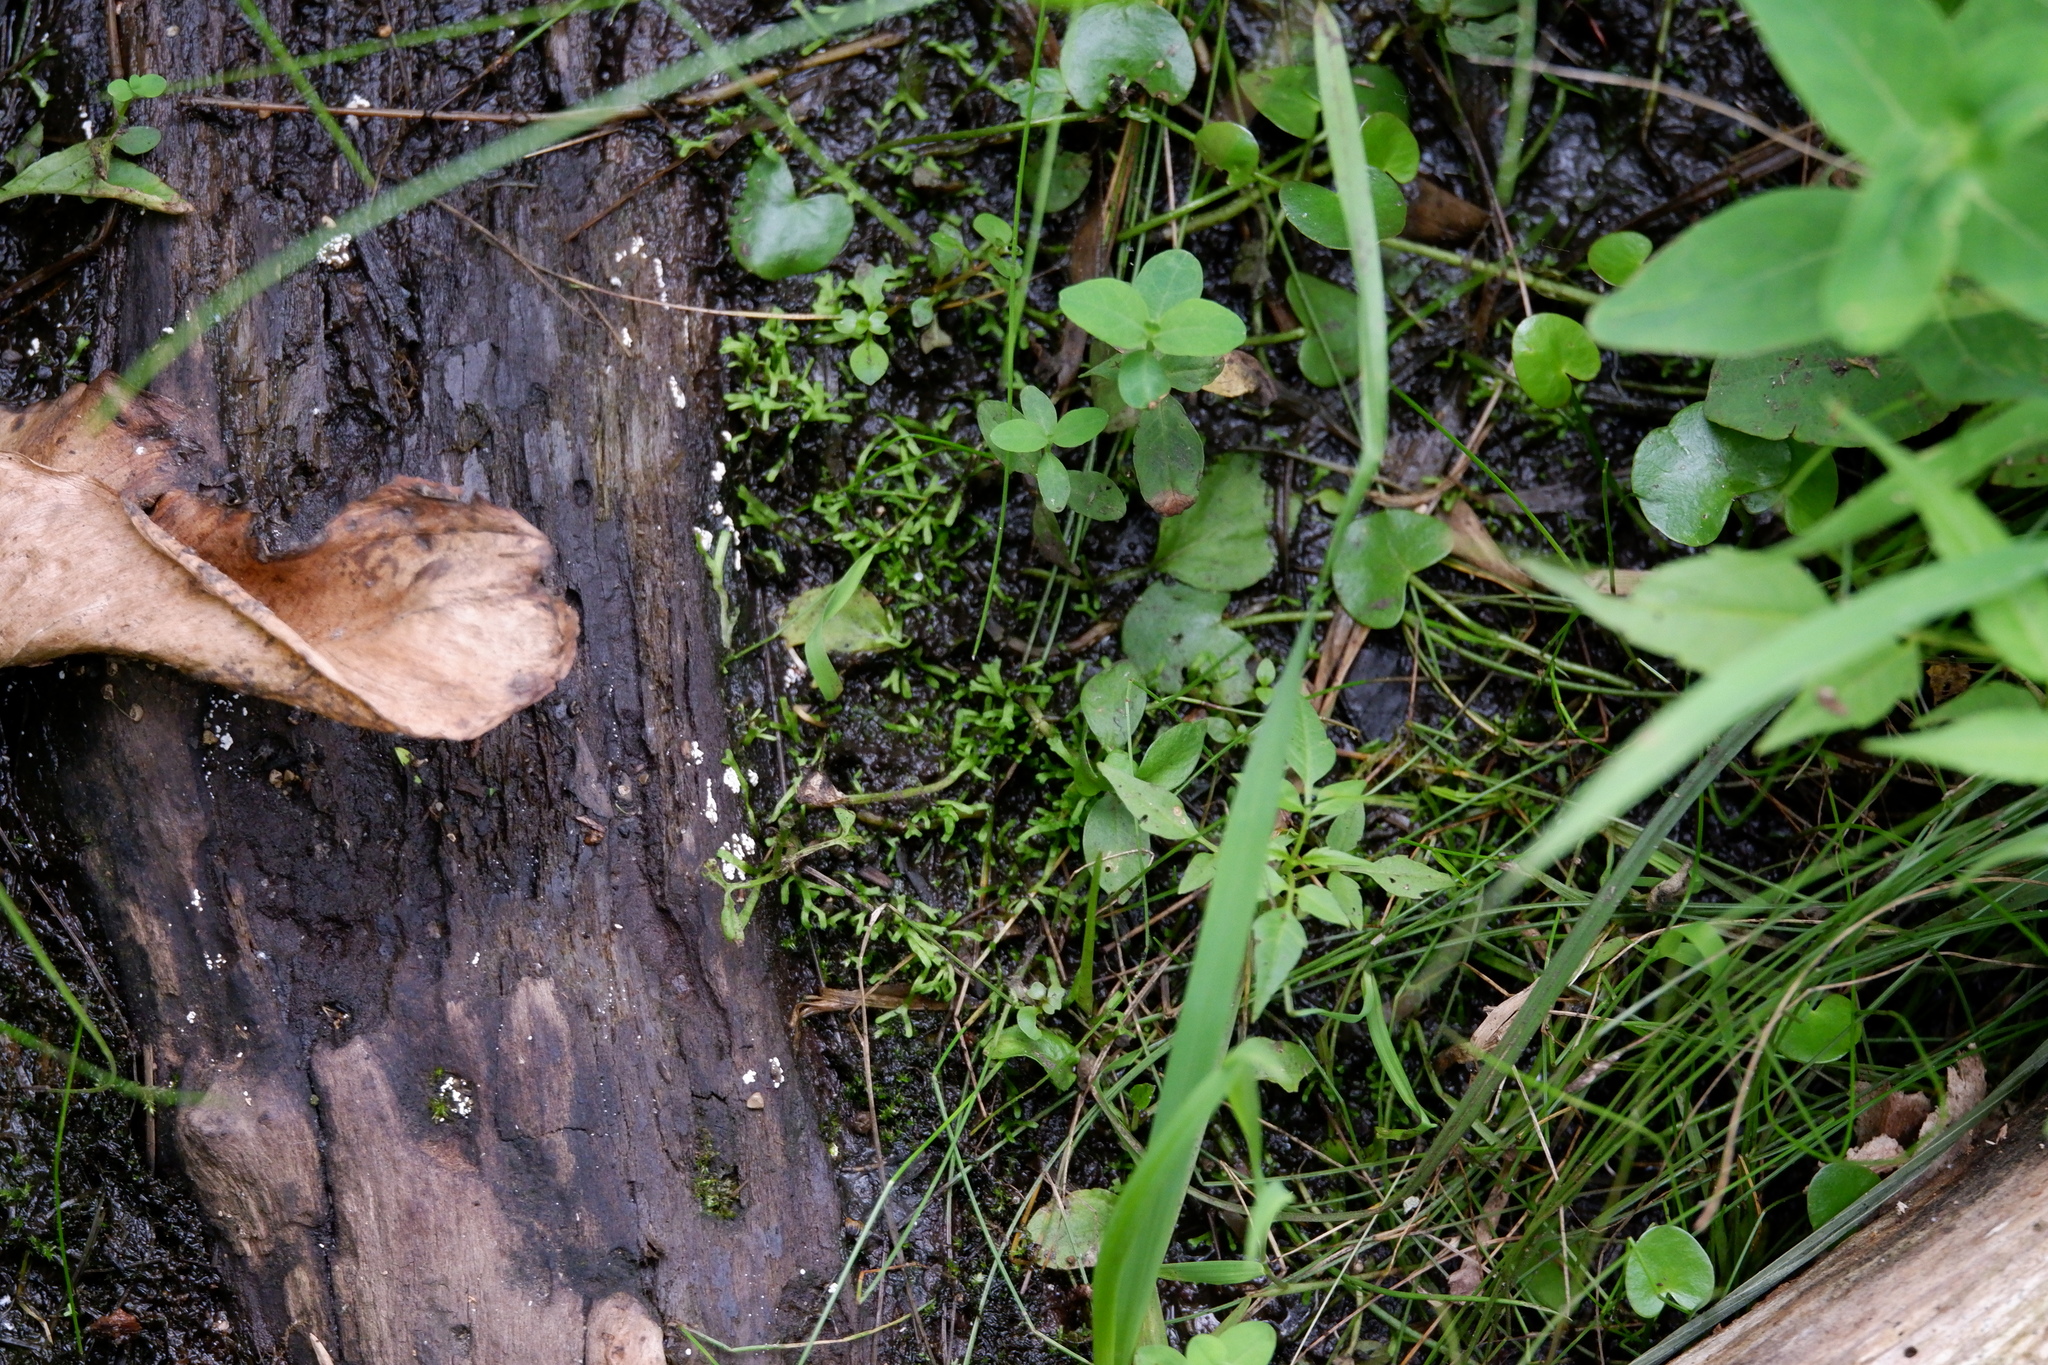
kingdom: Plantae
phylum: Marchantiophyta
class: Marchantiopsida
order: Marchantiales
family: Ricciaceae
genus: Riccia
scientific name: Riccia fluitans
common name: Floating crystalwort
